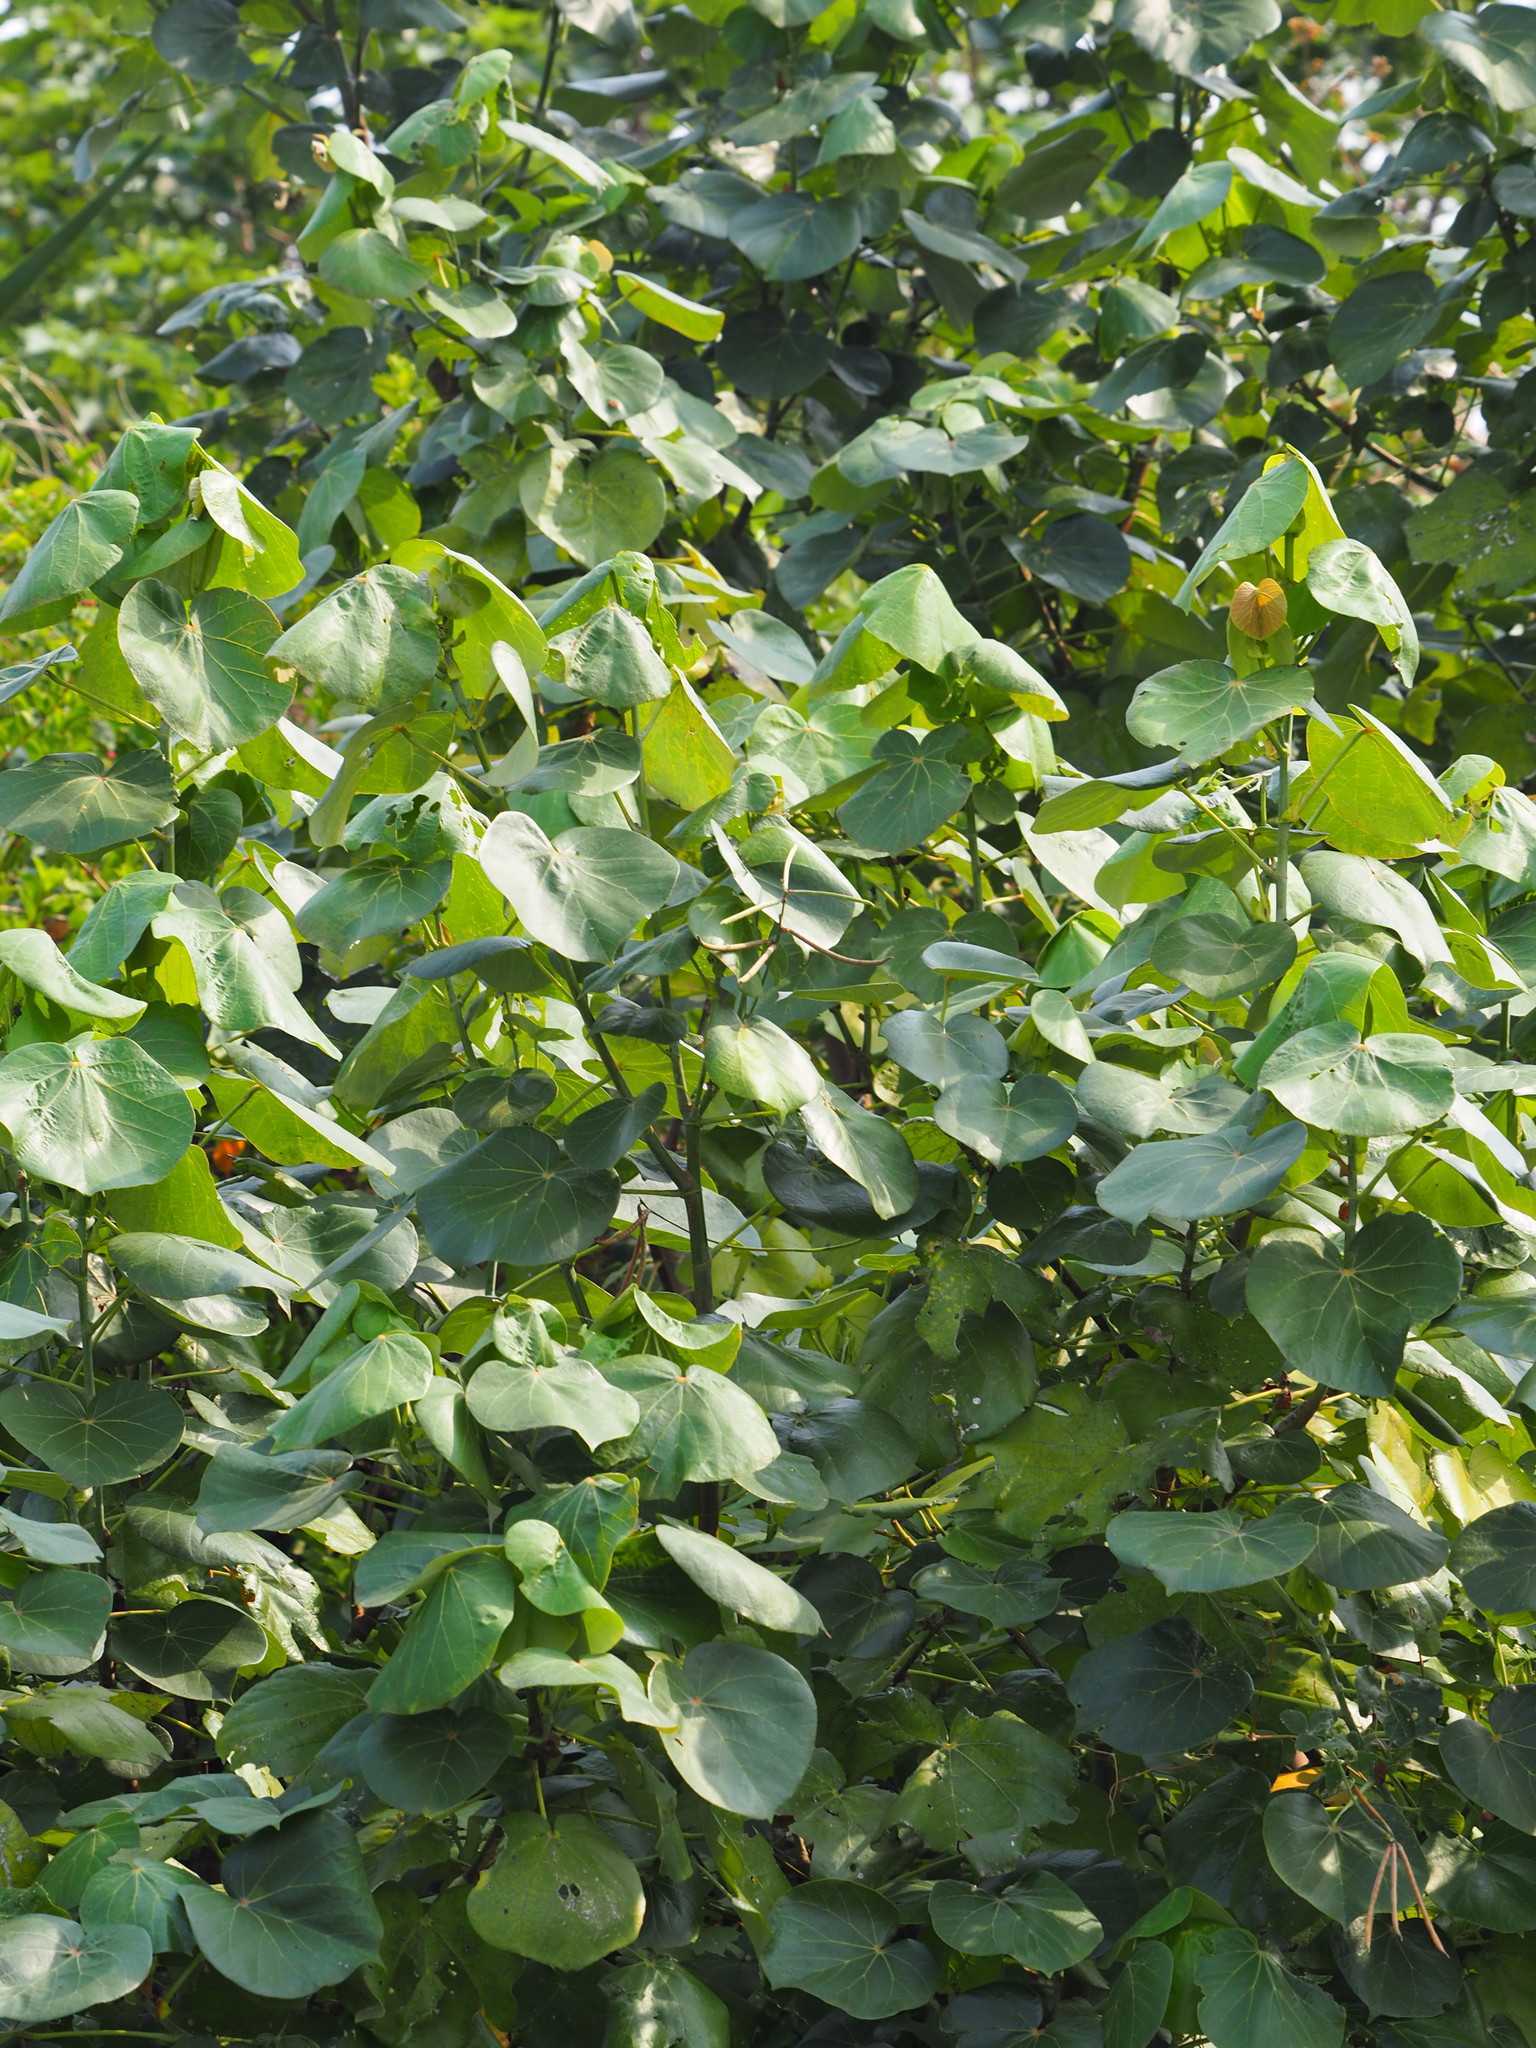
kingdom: Plantae
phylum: Tracheophyta
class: Magnoliopsida
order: Malvales
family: Malvaceae
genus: Talipariti
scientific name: Talipariti tiliaceum
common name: Sea hibiscus
